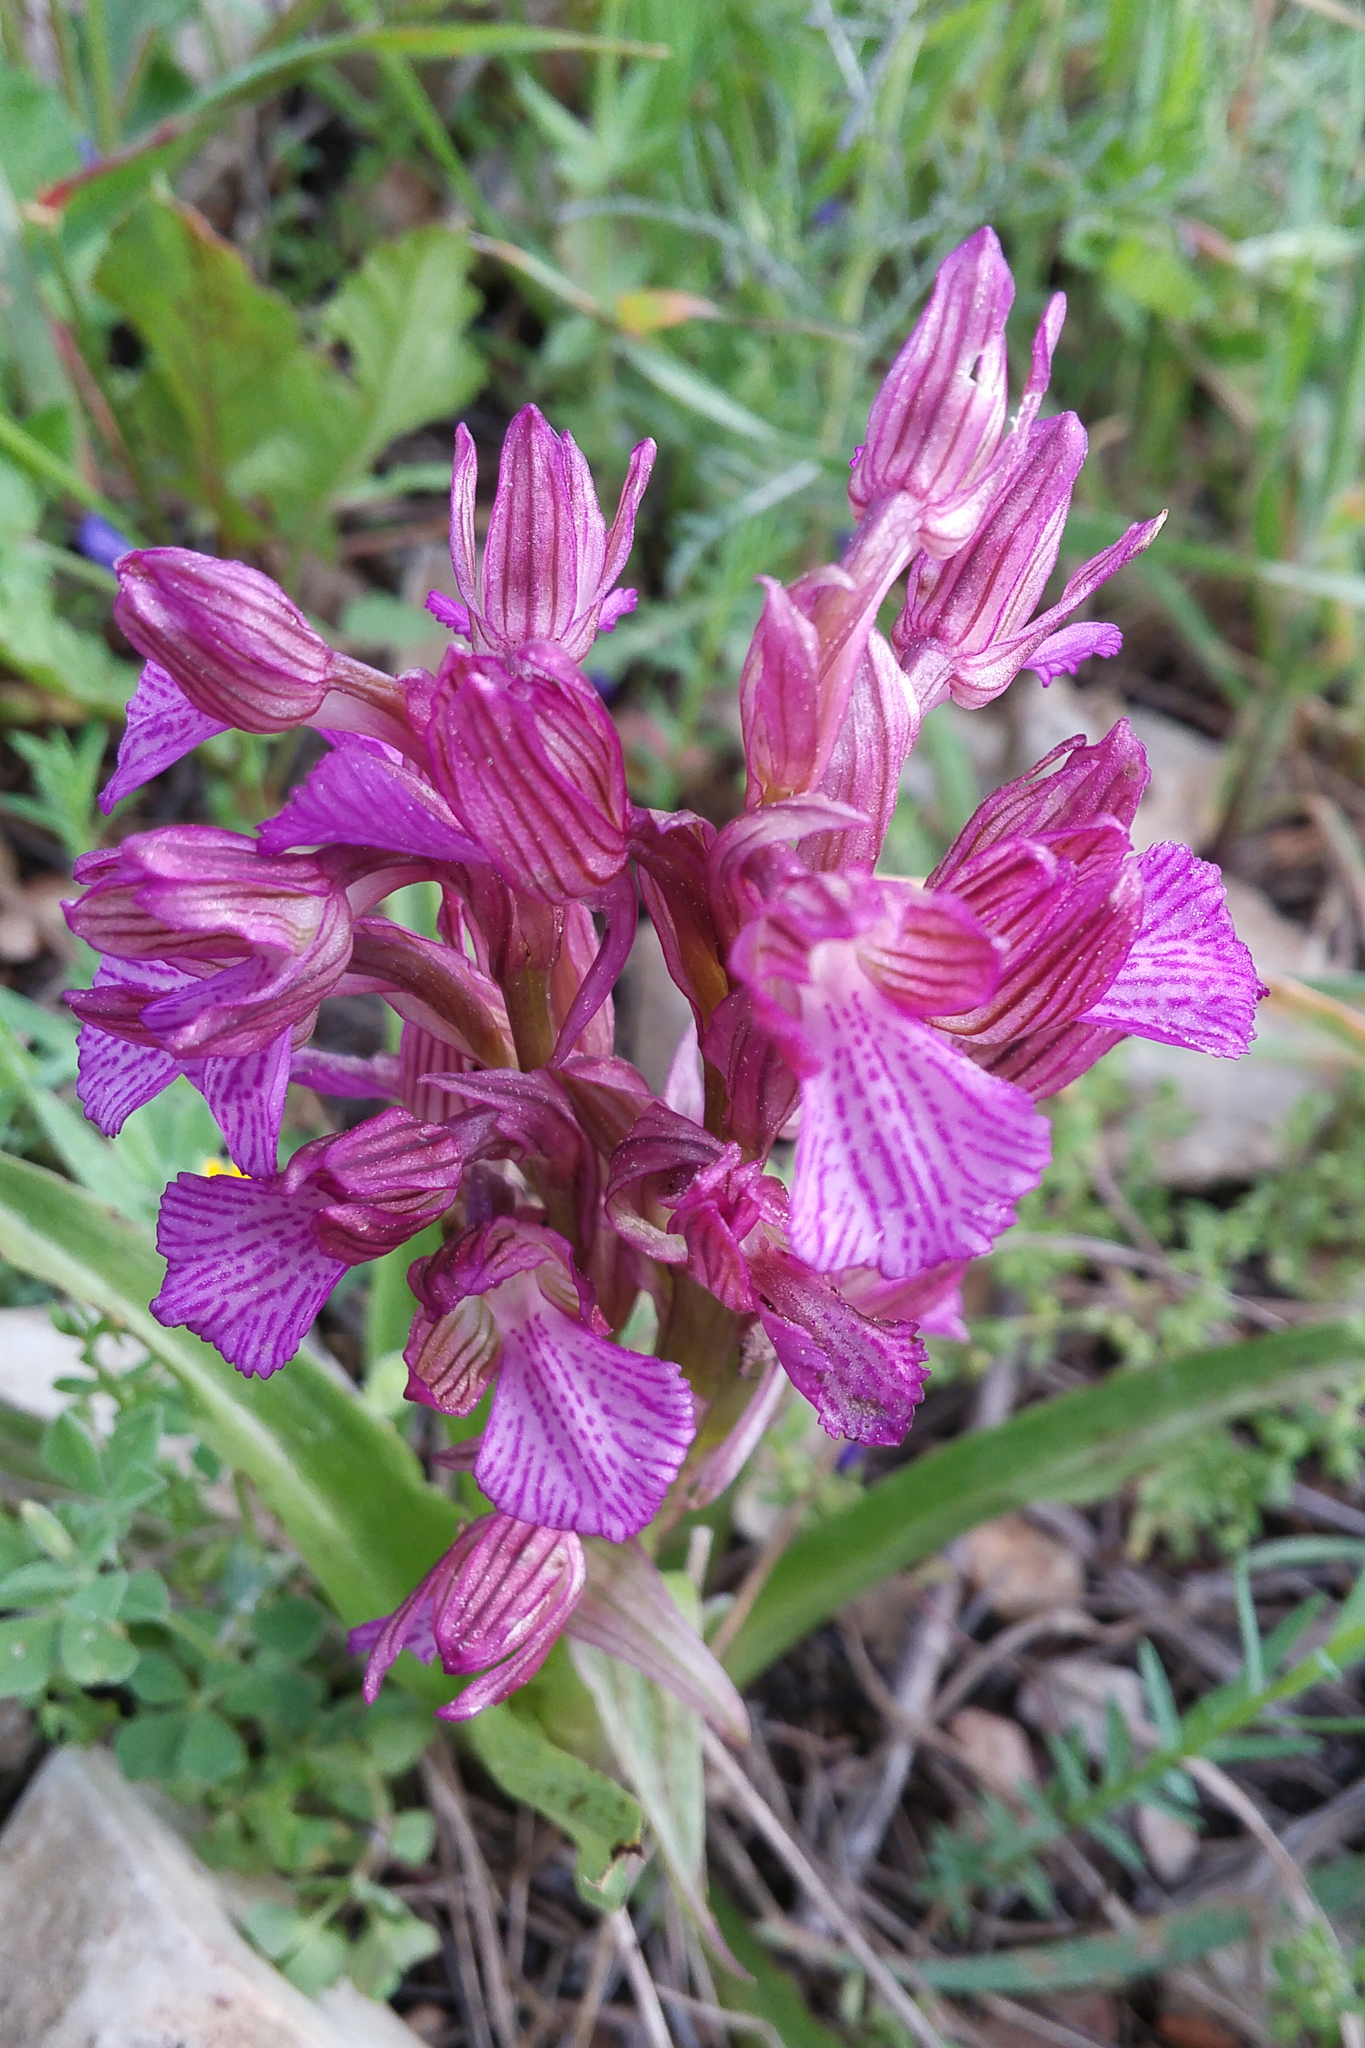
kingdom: Plantae
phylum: Tracheophyta
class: Liliopsida
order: Asparagales
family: Orchidaceae
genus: Anacamptis
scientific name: Anacamptis papilionacea
